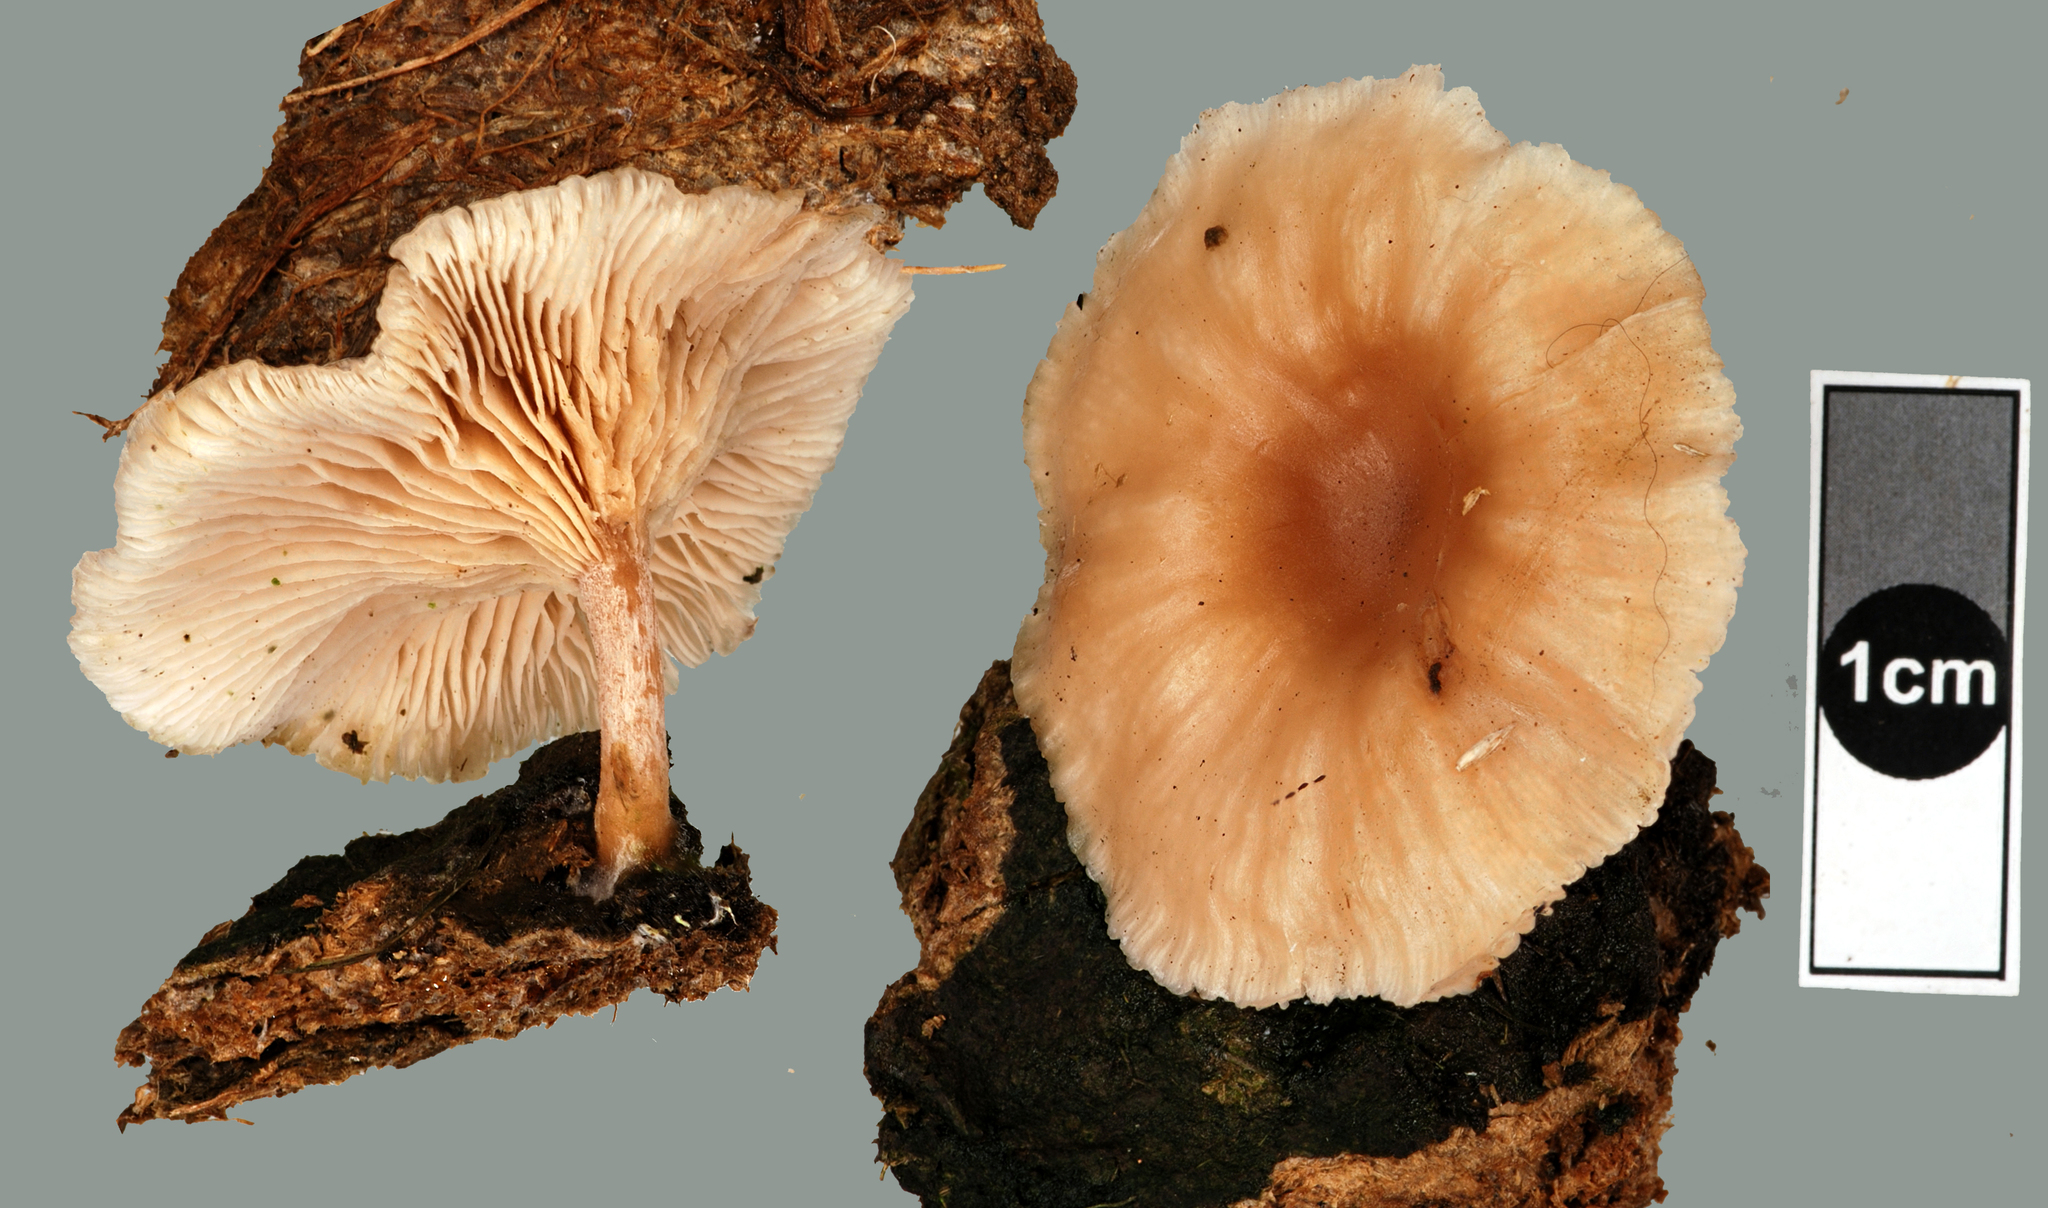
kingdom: Fungi
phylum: Basidiomycota
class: Agaricomycetes
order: Agaricales
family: Tricholomataceae
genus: Clitocybe
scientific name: Clitocybe wellingtonensis
